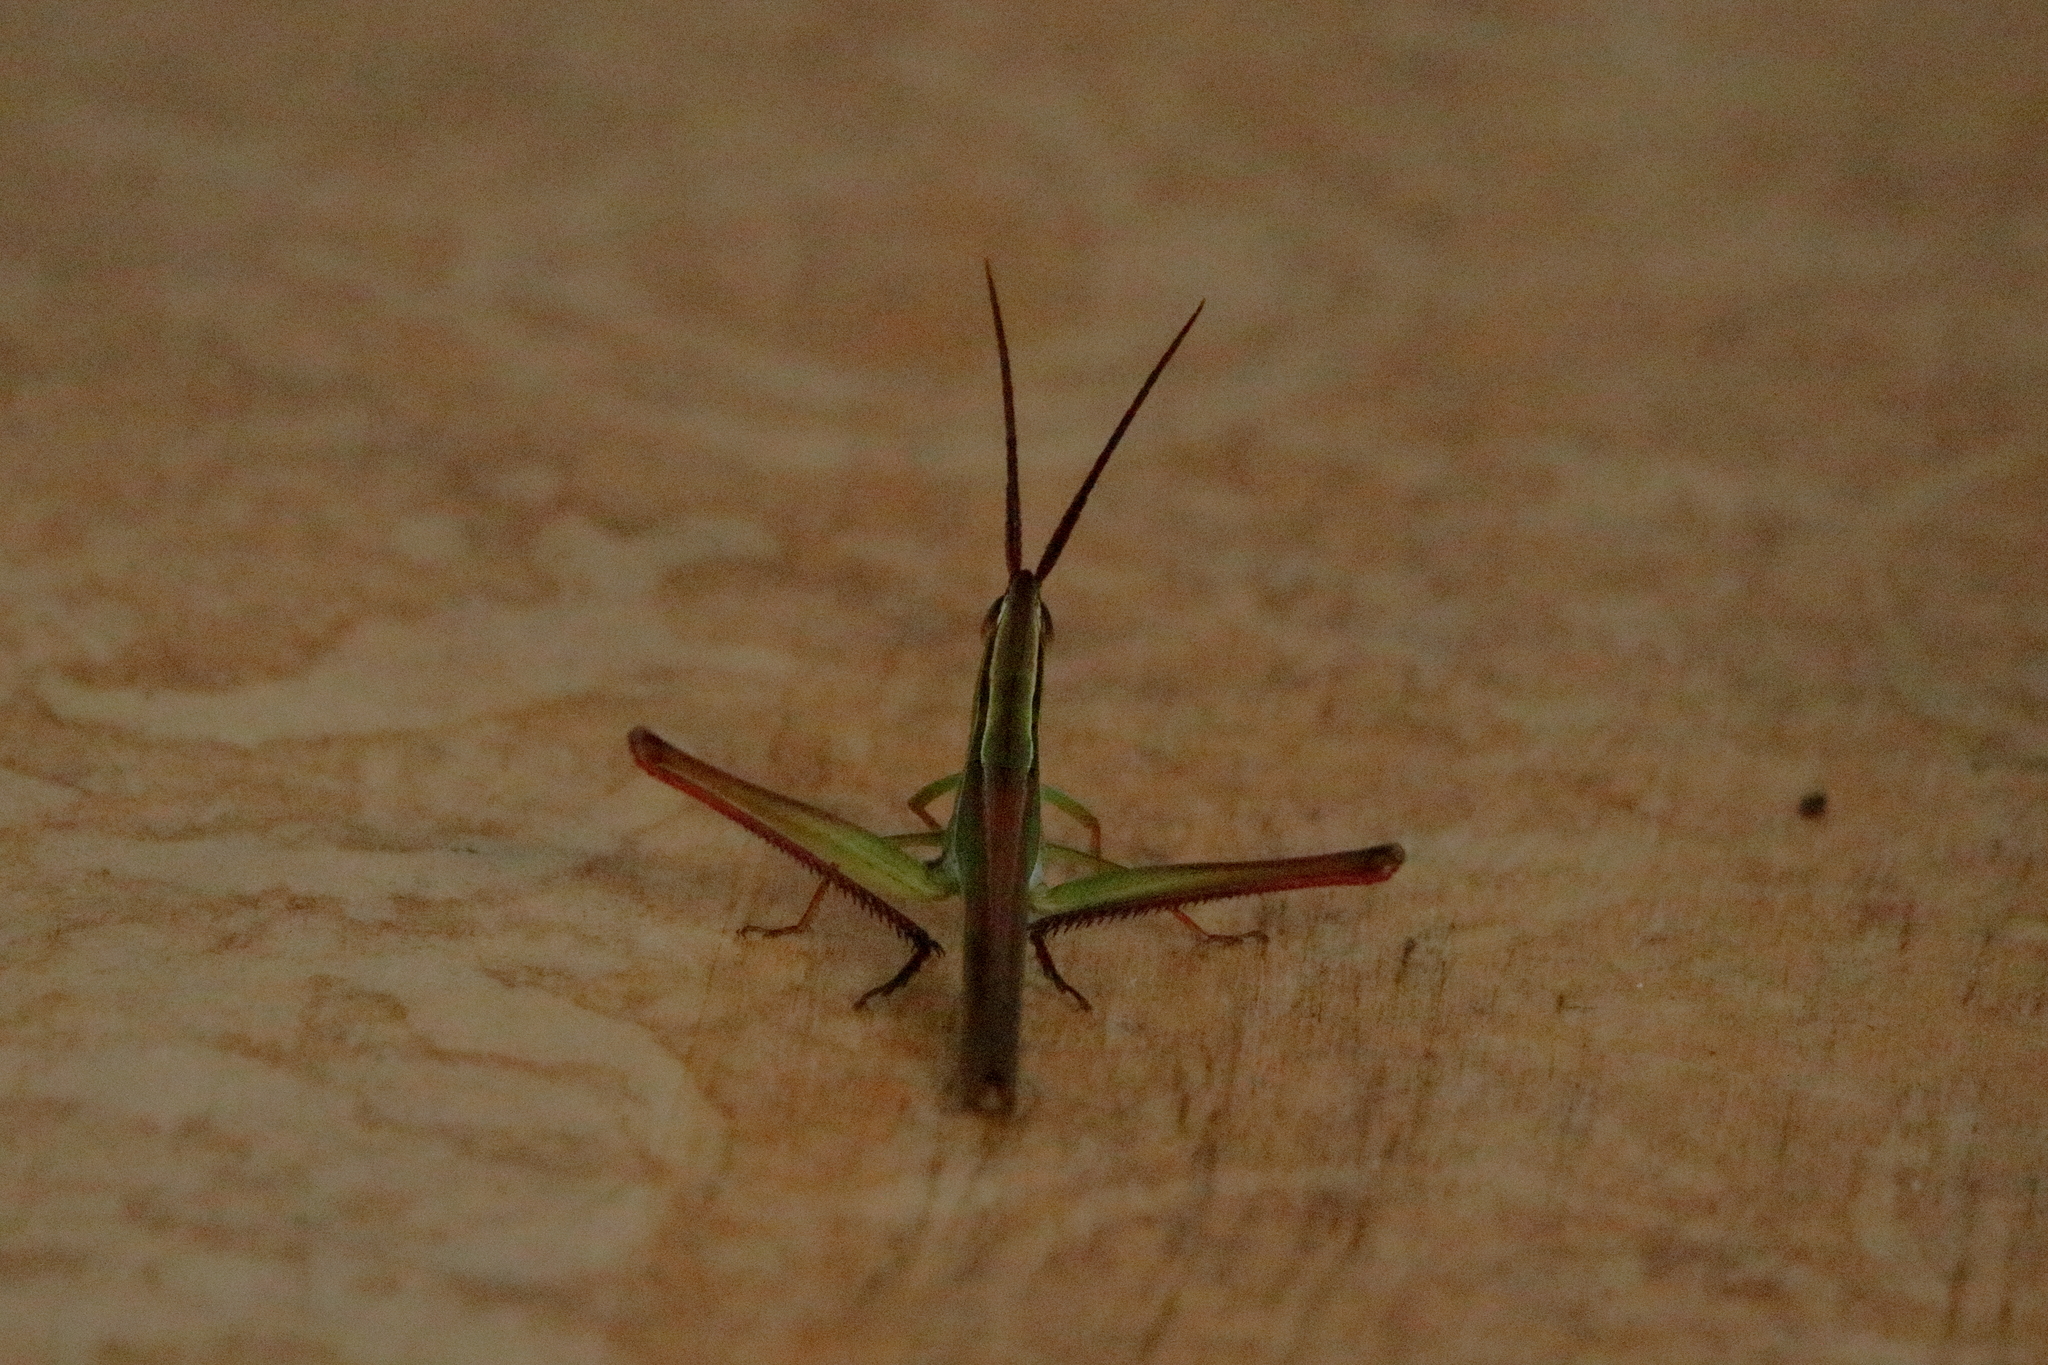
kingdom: Animalia
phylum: Arthropoda
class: Insecta
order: Orthoptera
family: Acrididae
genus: Mermiria
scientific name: Mermiria picta
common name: Lively mermiria grasshopper
